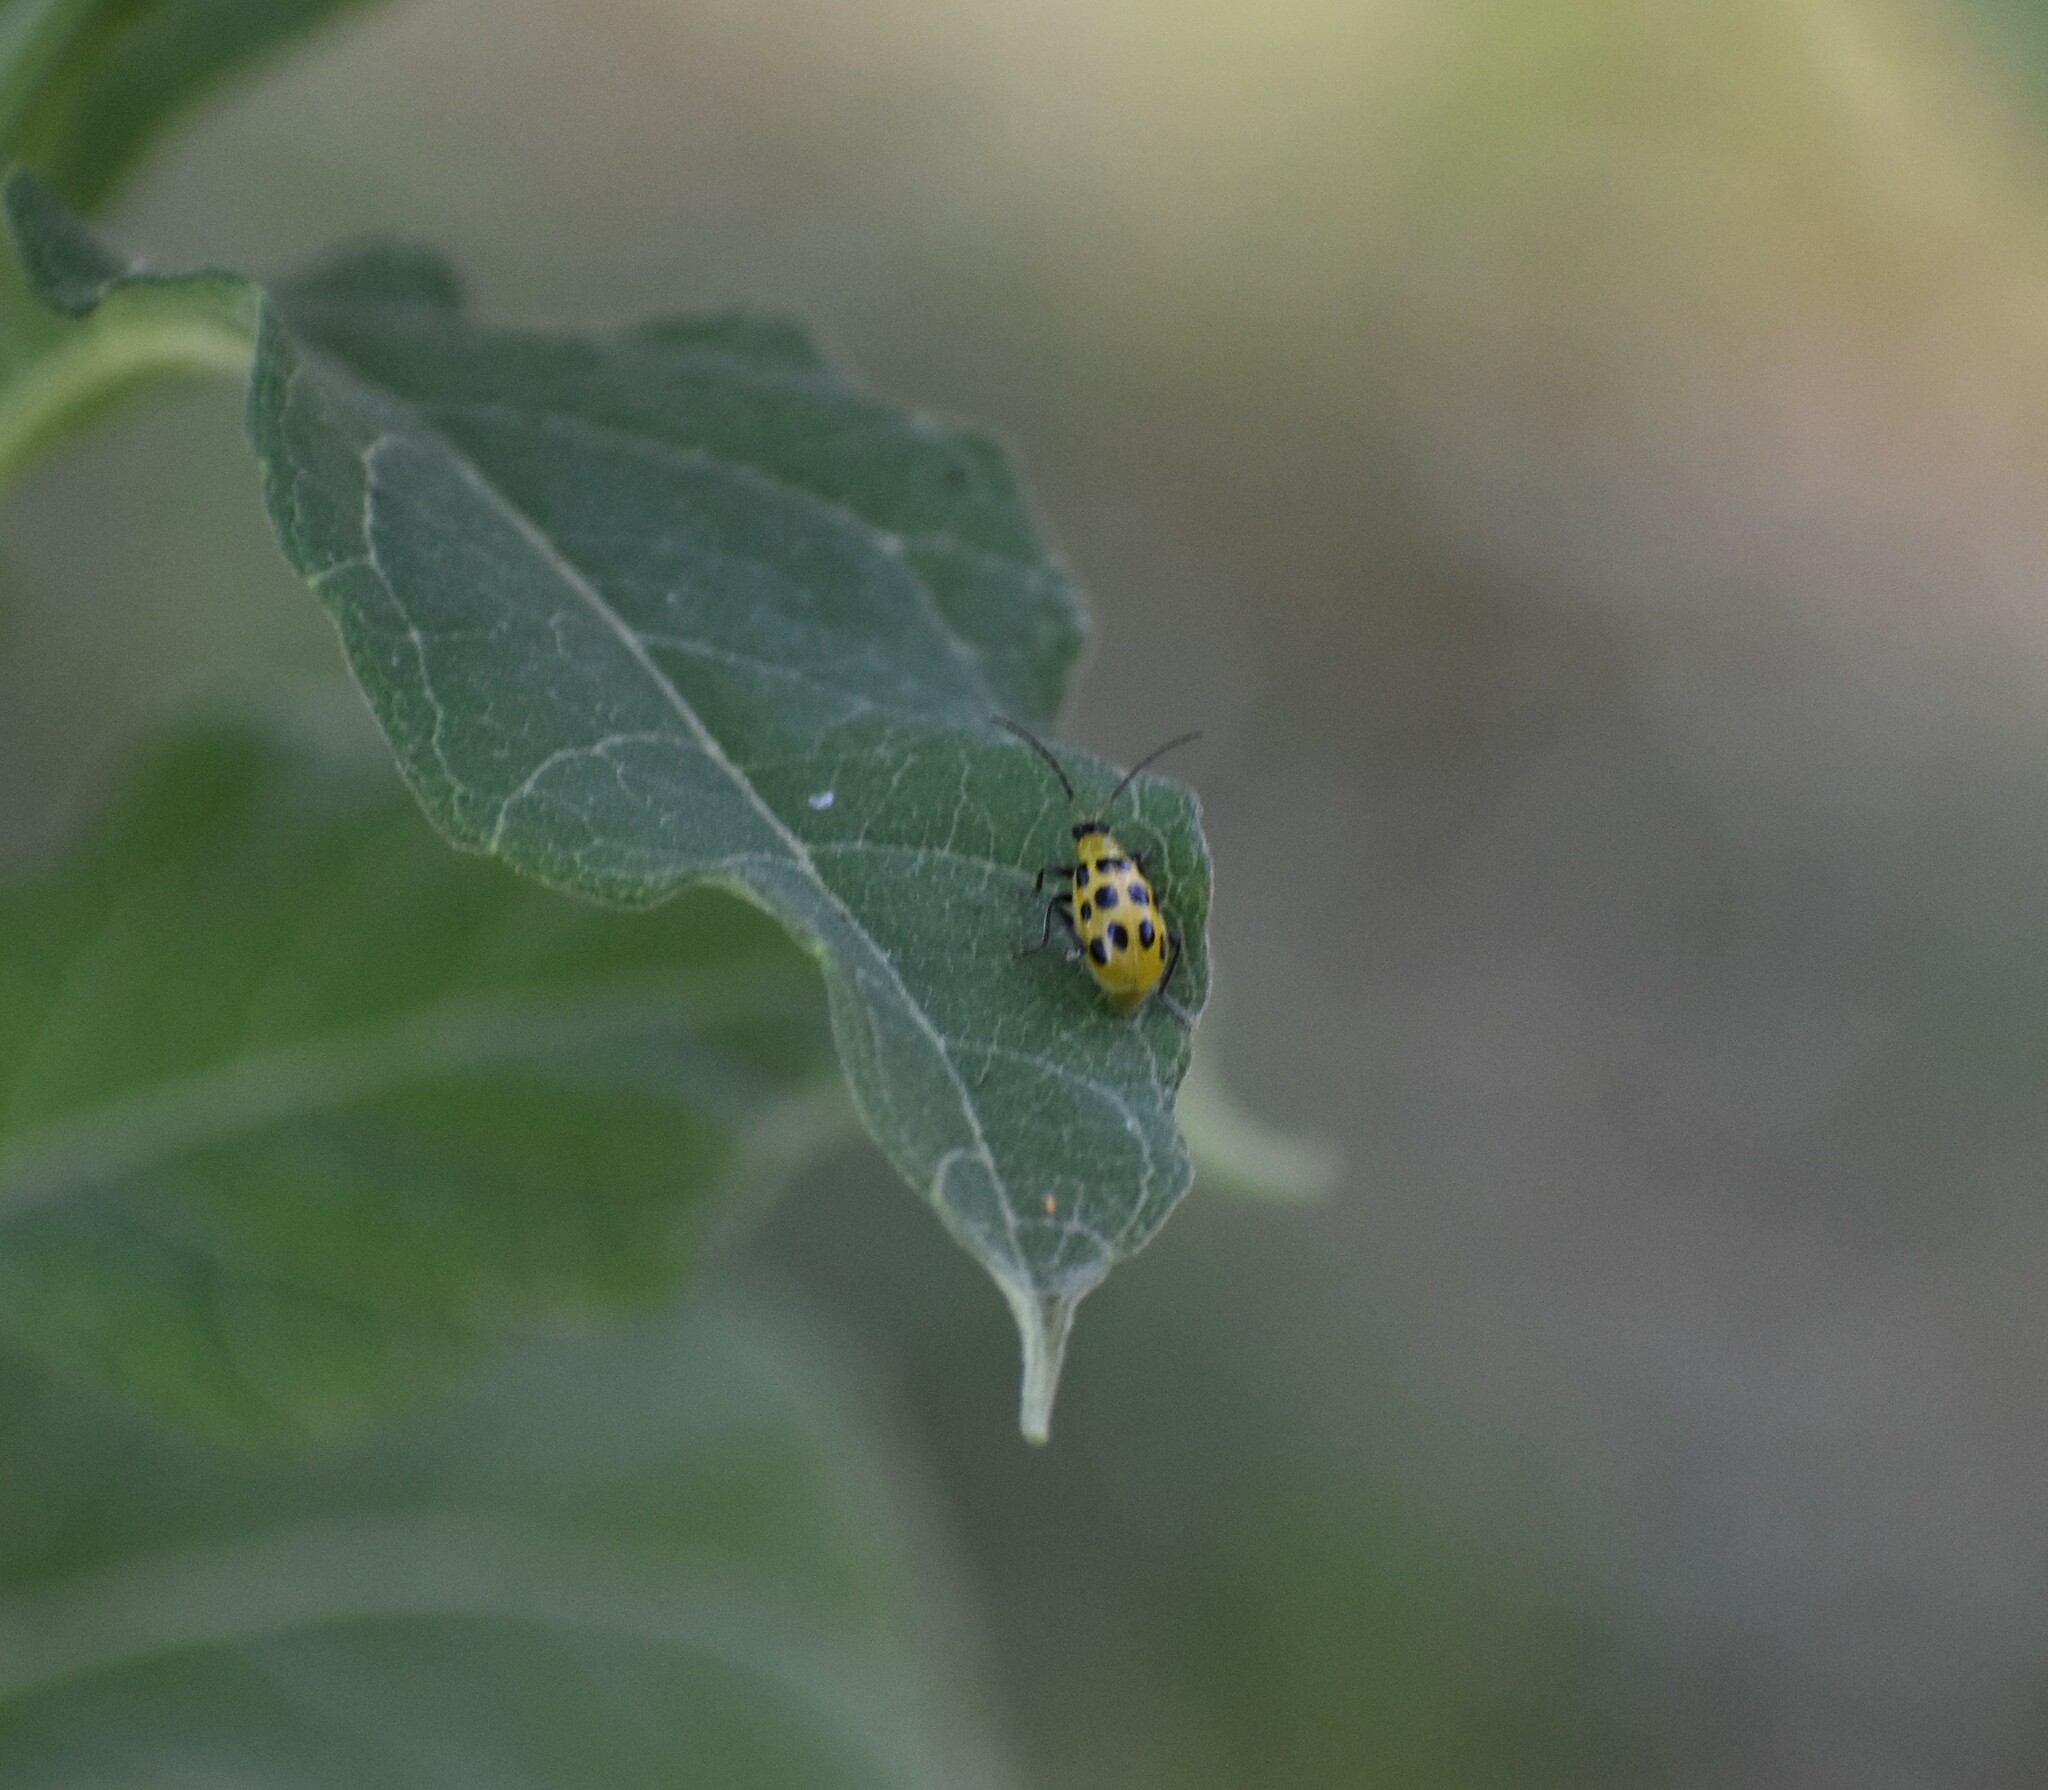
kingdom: Animalia
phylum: Arthropoda
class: Insecta
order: Coleoptera
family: Chrysomelidae
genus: Diabrotica
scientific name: Diabrotica undecimpunctata
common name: Spotted cucumber beetle
